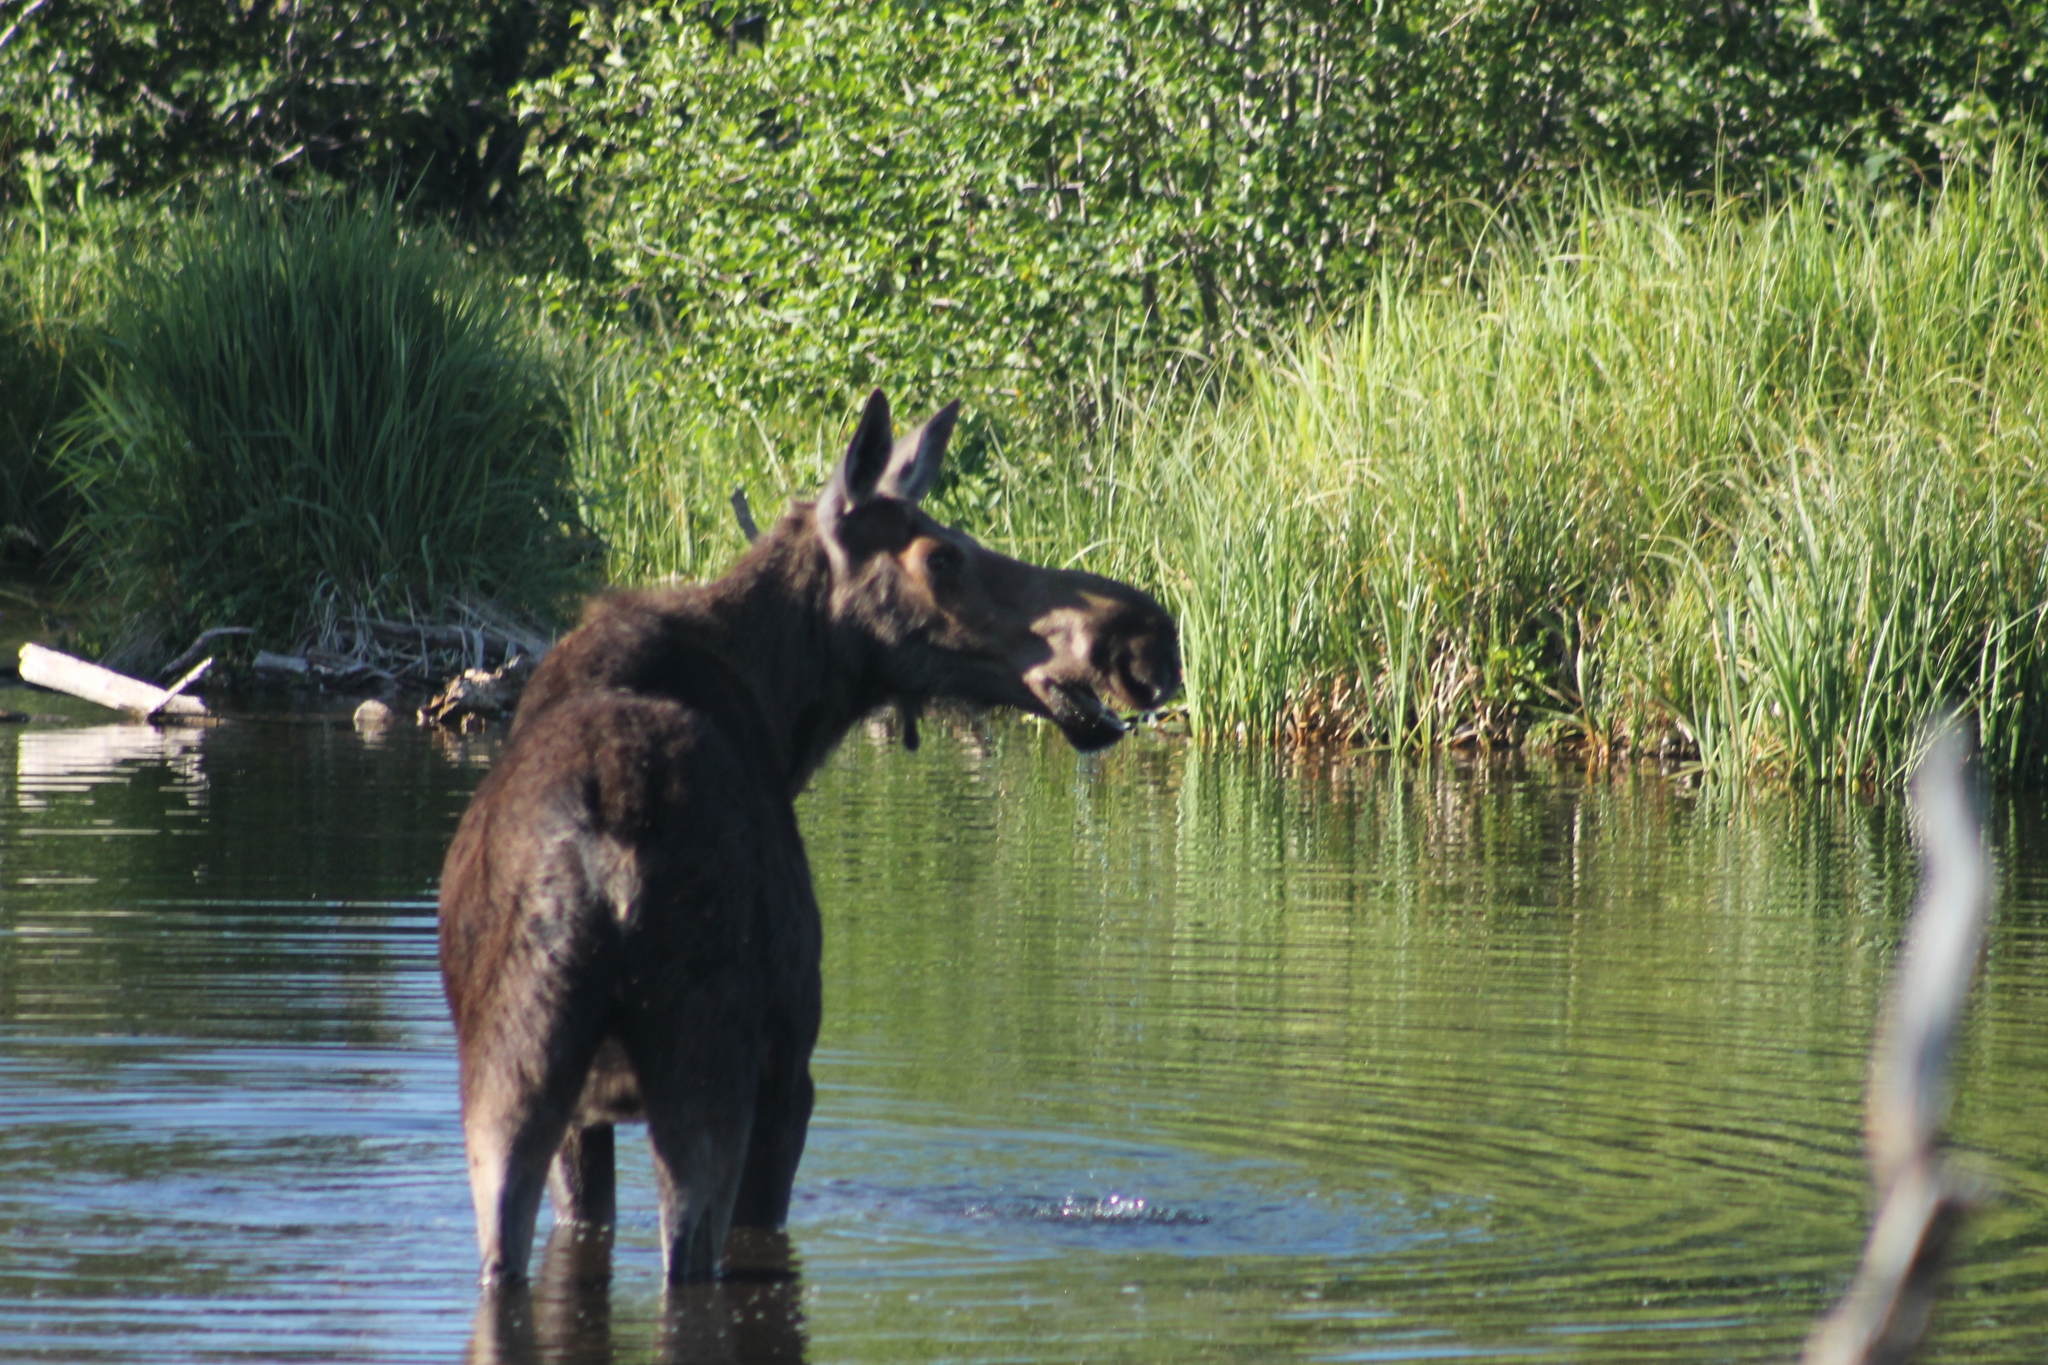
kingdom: Animalia
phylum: Chordata
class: Mammalia
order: Artiodactyla
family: Cervidae
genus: Alces
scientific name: Alces alces
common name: Moose
